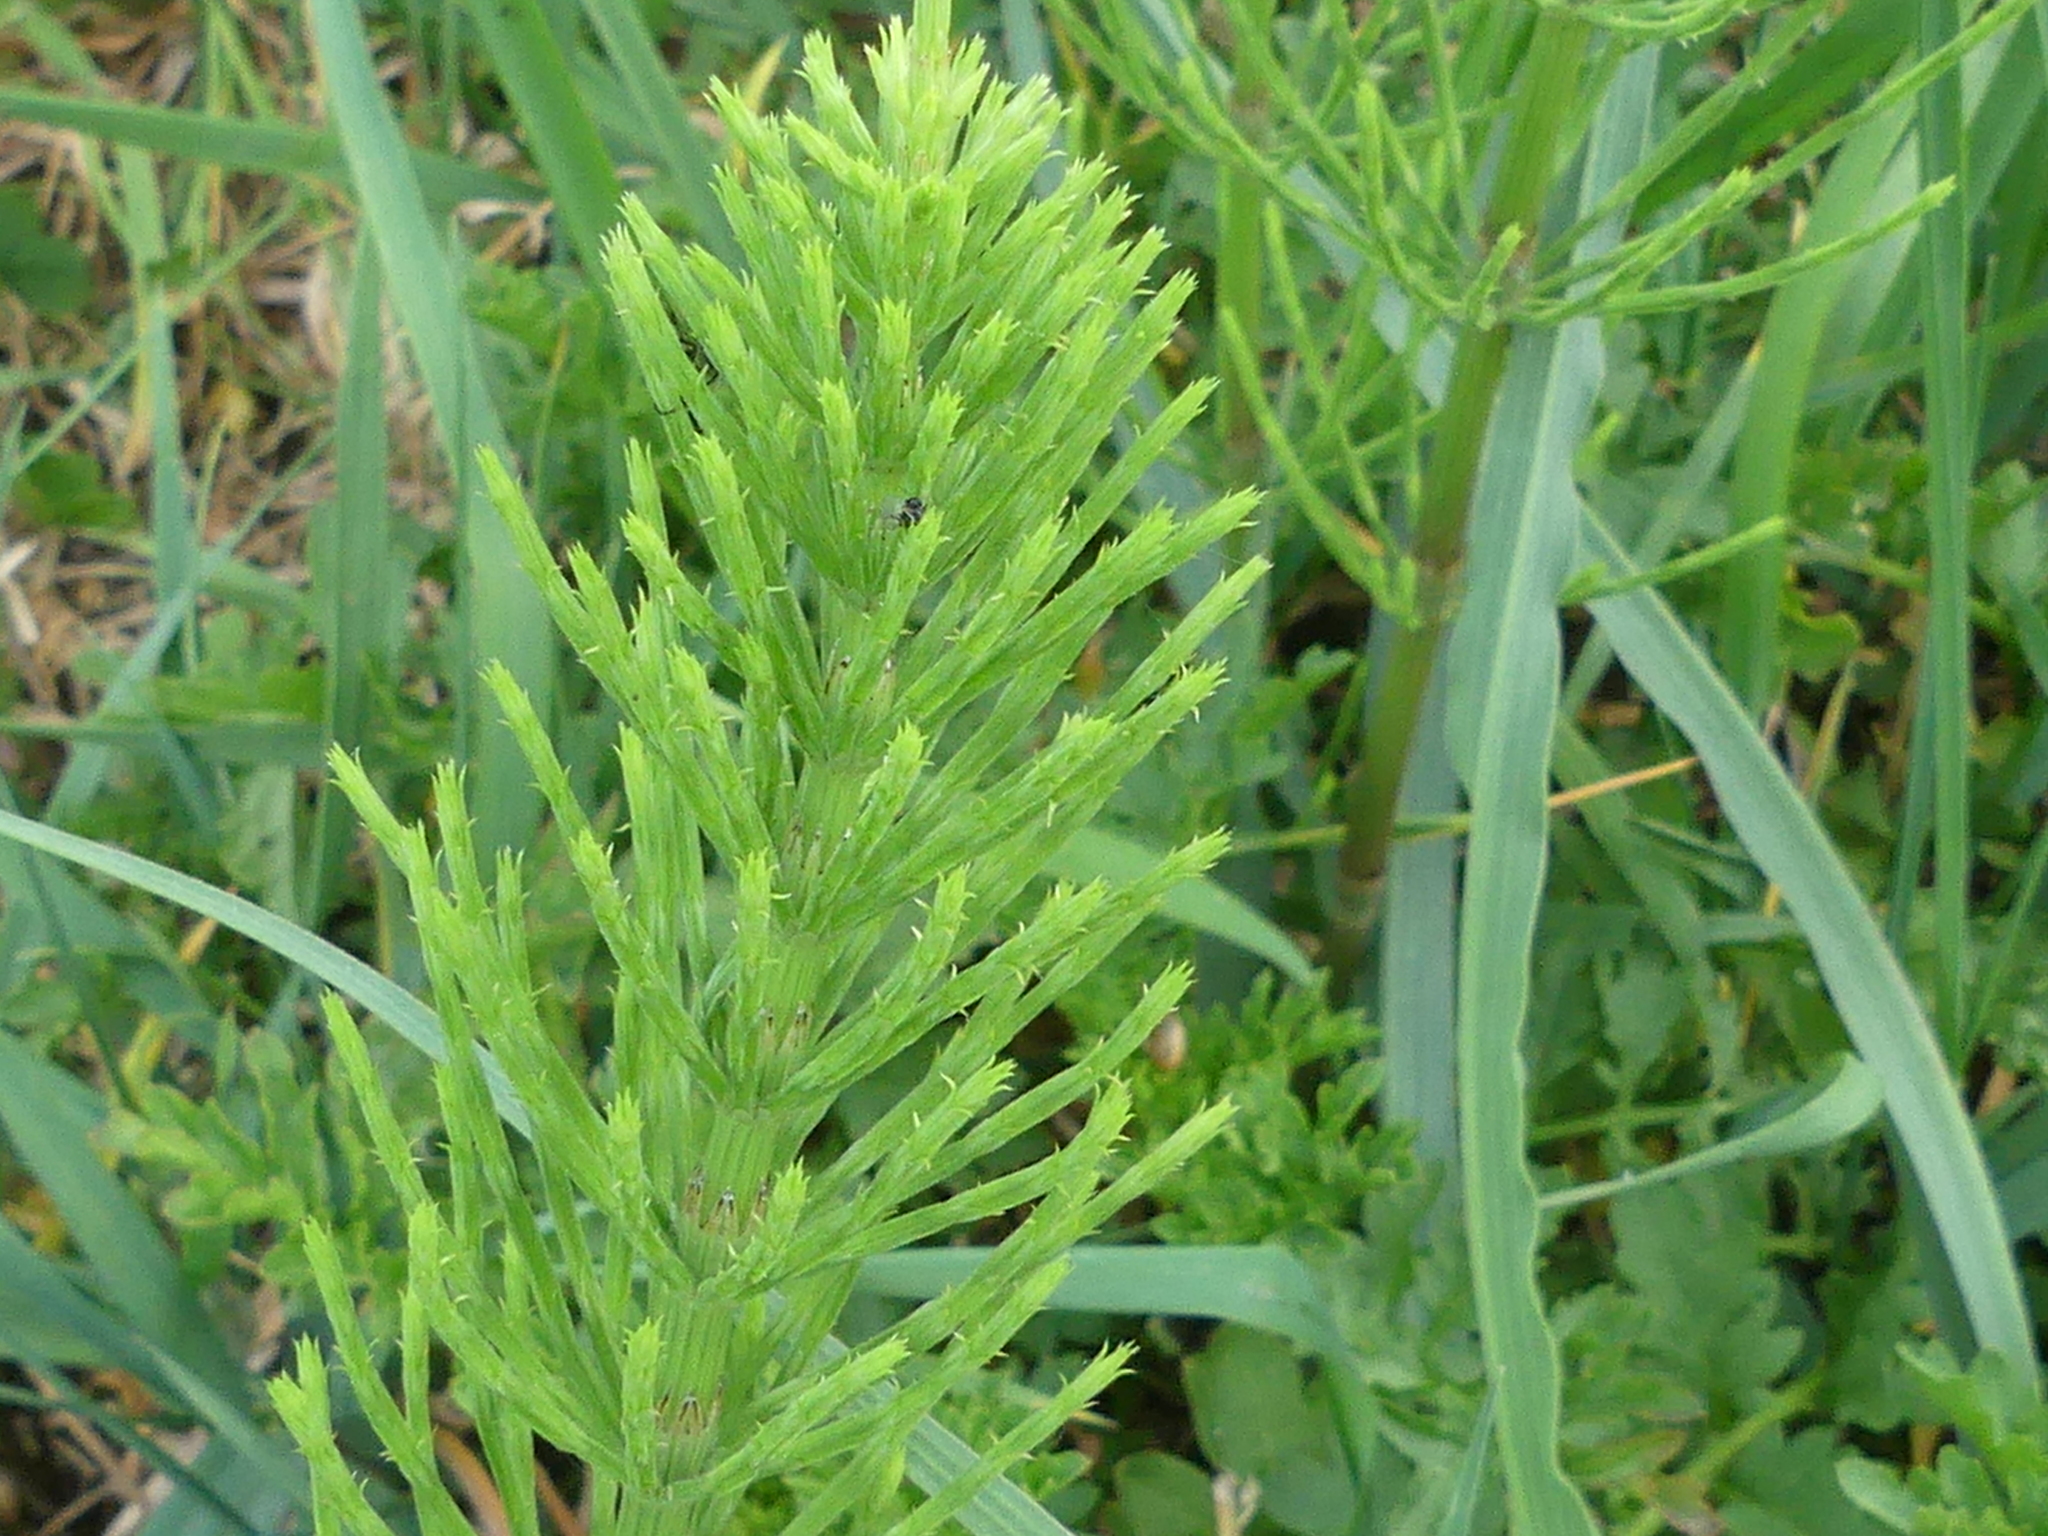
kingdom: Plantae
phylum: Tracheophyta
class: Polypodiopsida
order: Equisetales
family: Equisetaceae
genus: Equisetum
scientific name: Equisetum arvense
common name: Field horsetail
